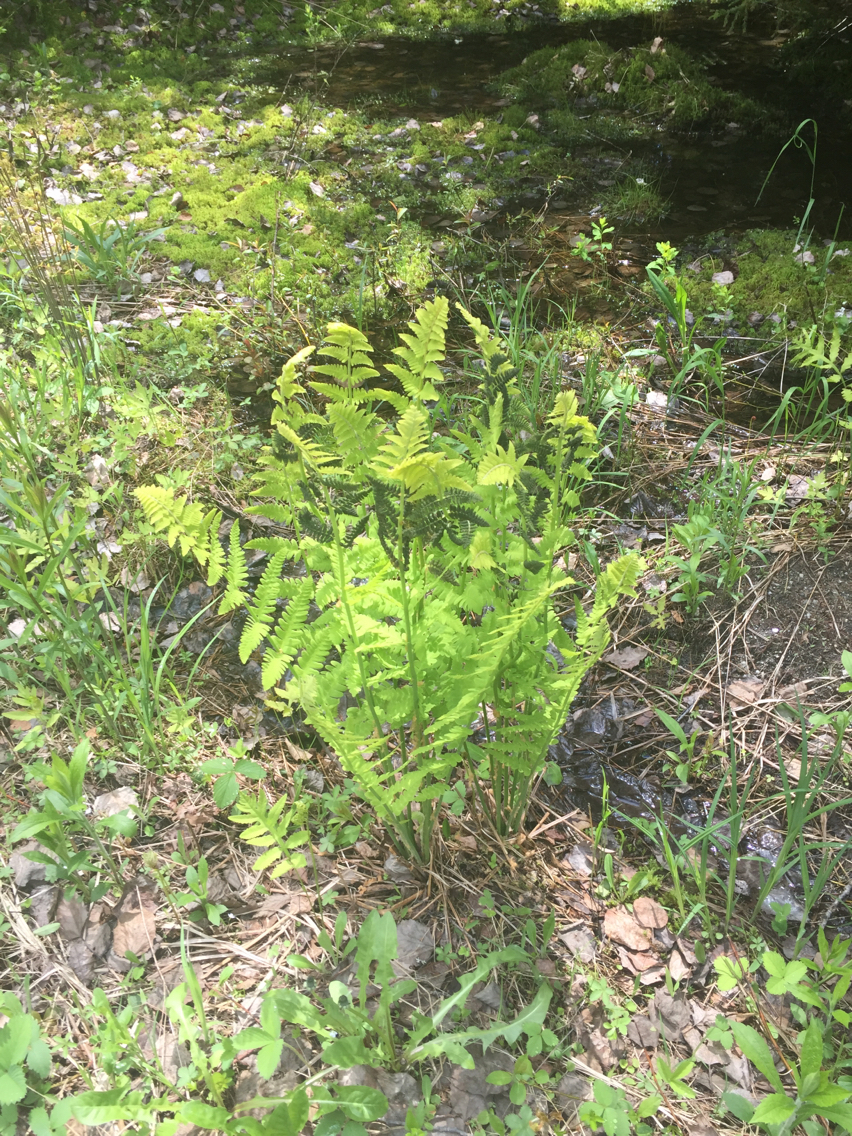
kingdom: Plantae
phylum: Tracheophyta
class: Polypodiopsida
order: Osmundales
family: Osmundaceae
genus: Claytosmunda
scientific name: Claytosmunda claytoniana
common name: Clayton's fern
